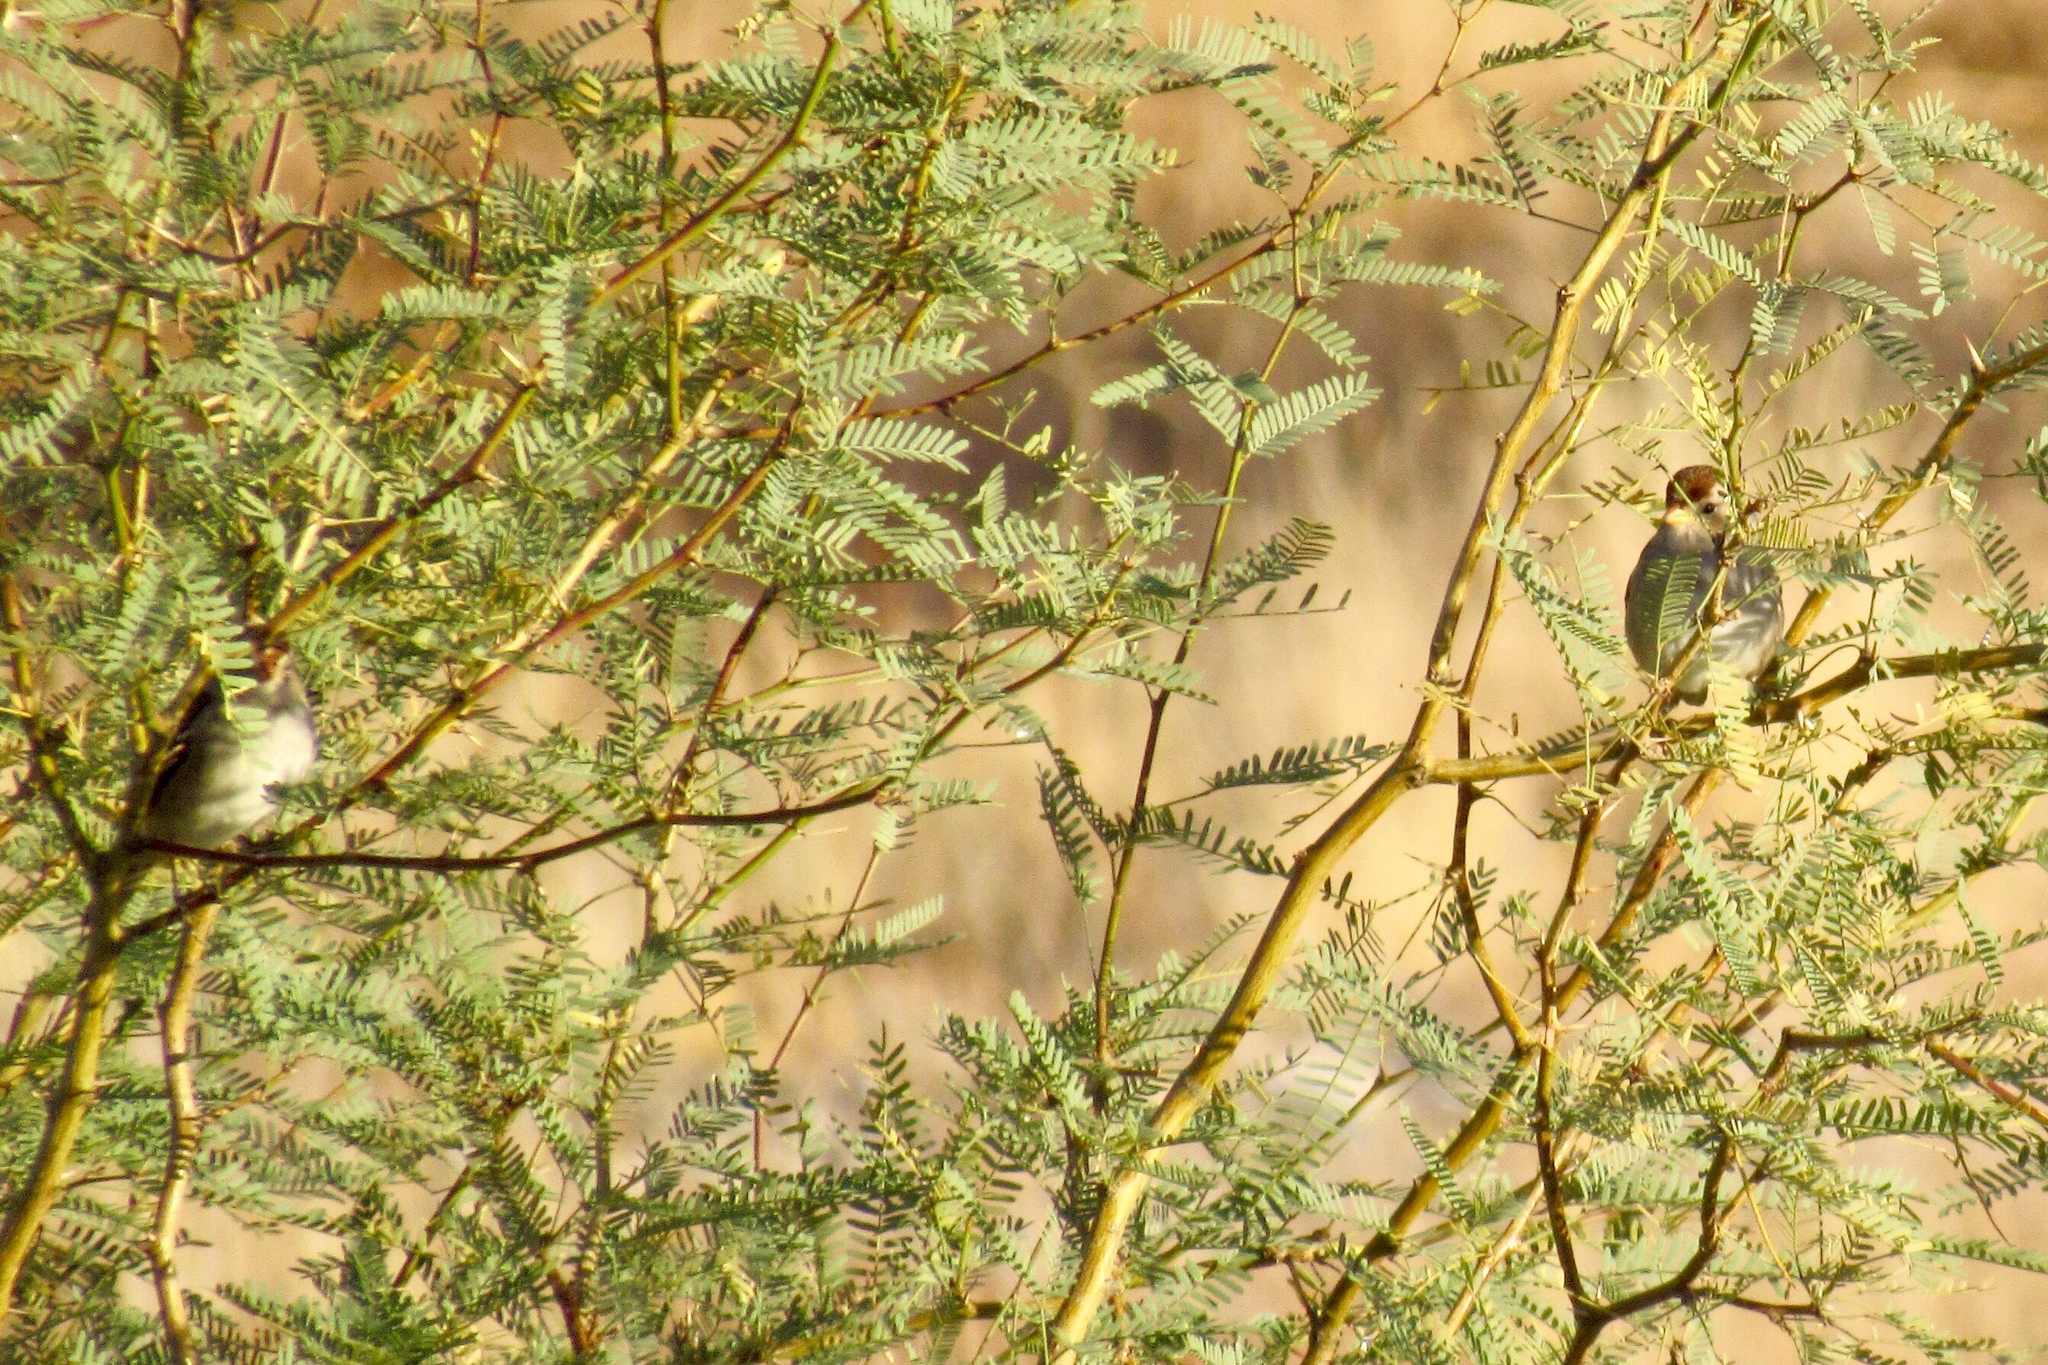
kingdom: Animalia
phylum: Chordata
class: Aves
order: Passeriformes
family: Passerellidae
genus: Zonotrichia
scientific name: Zonotrichia leucophrys
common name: White-crowned sparrow
